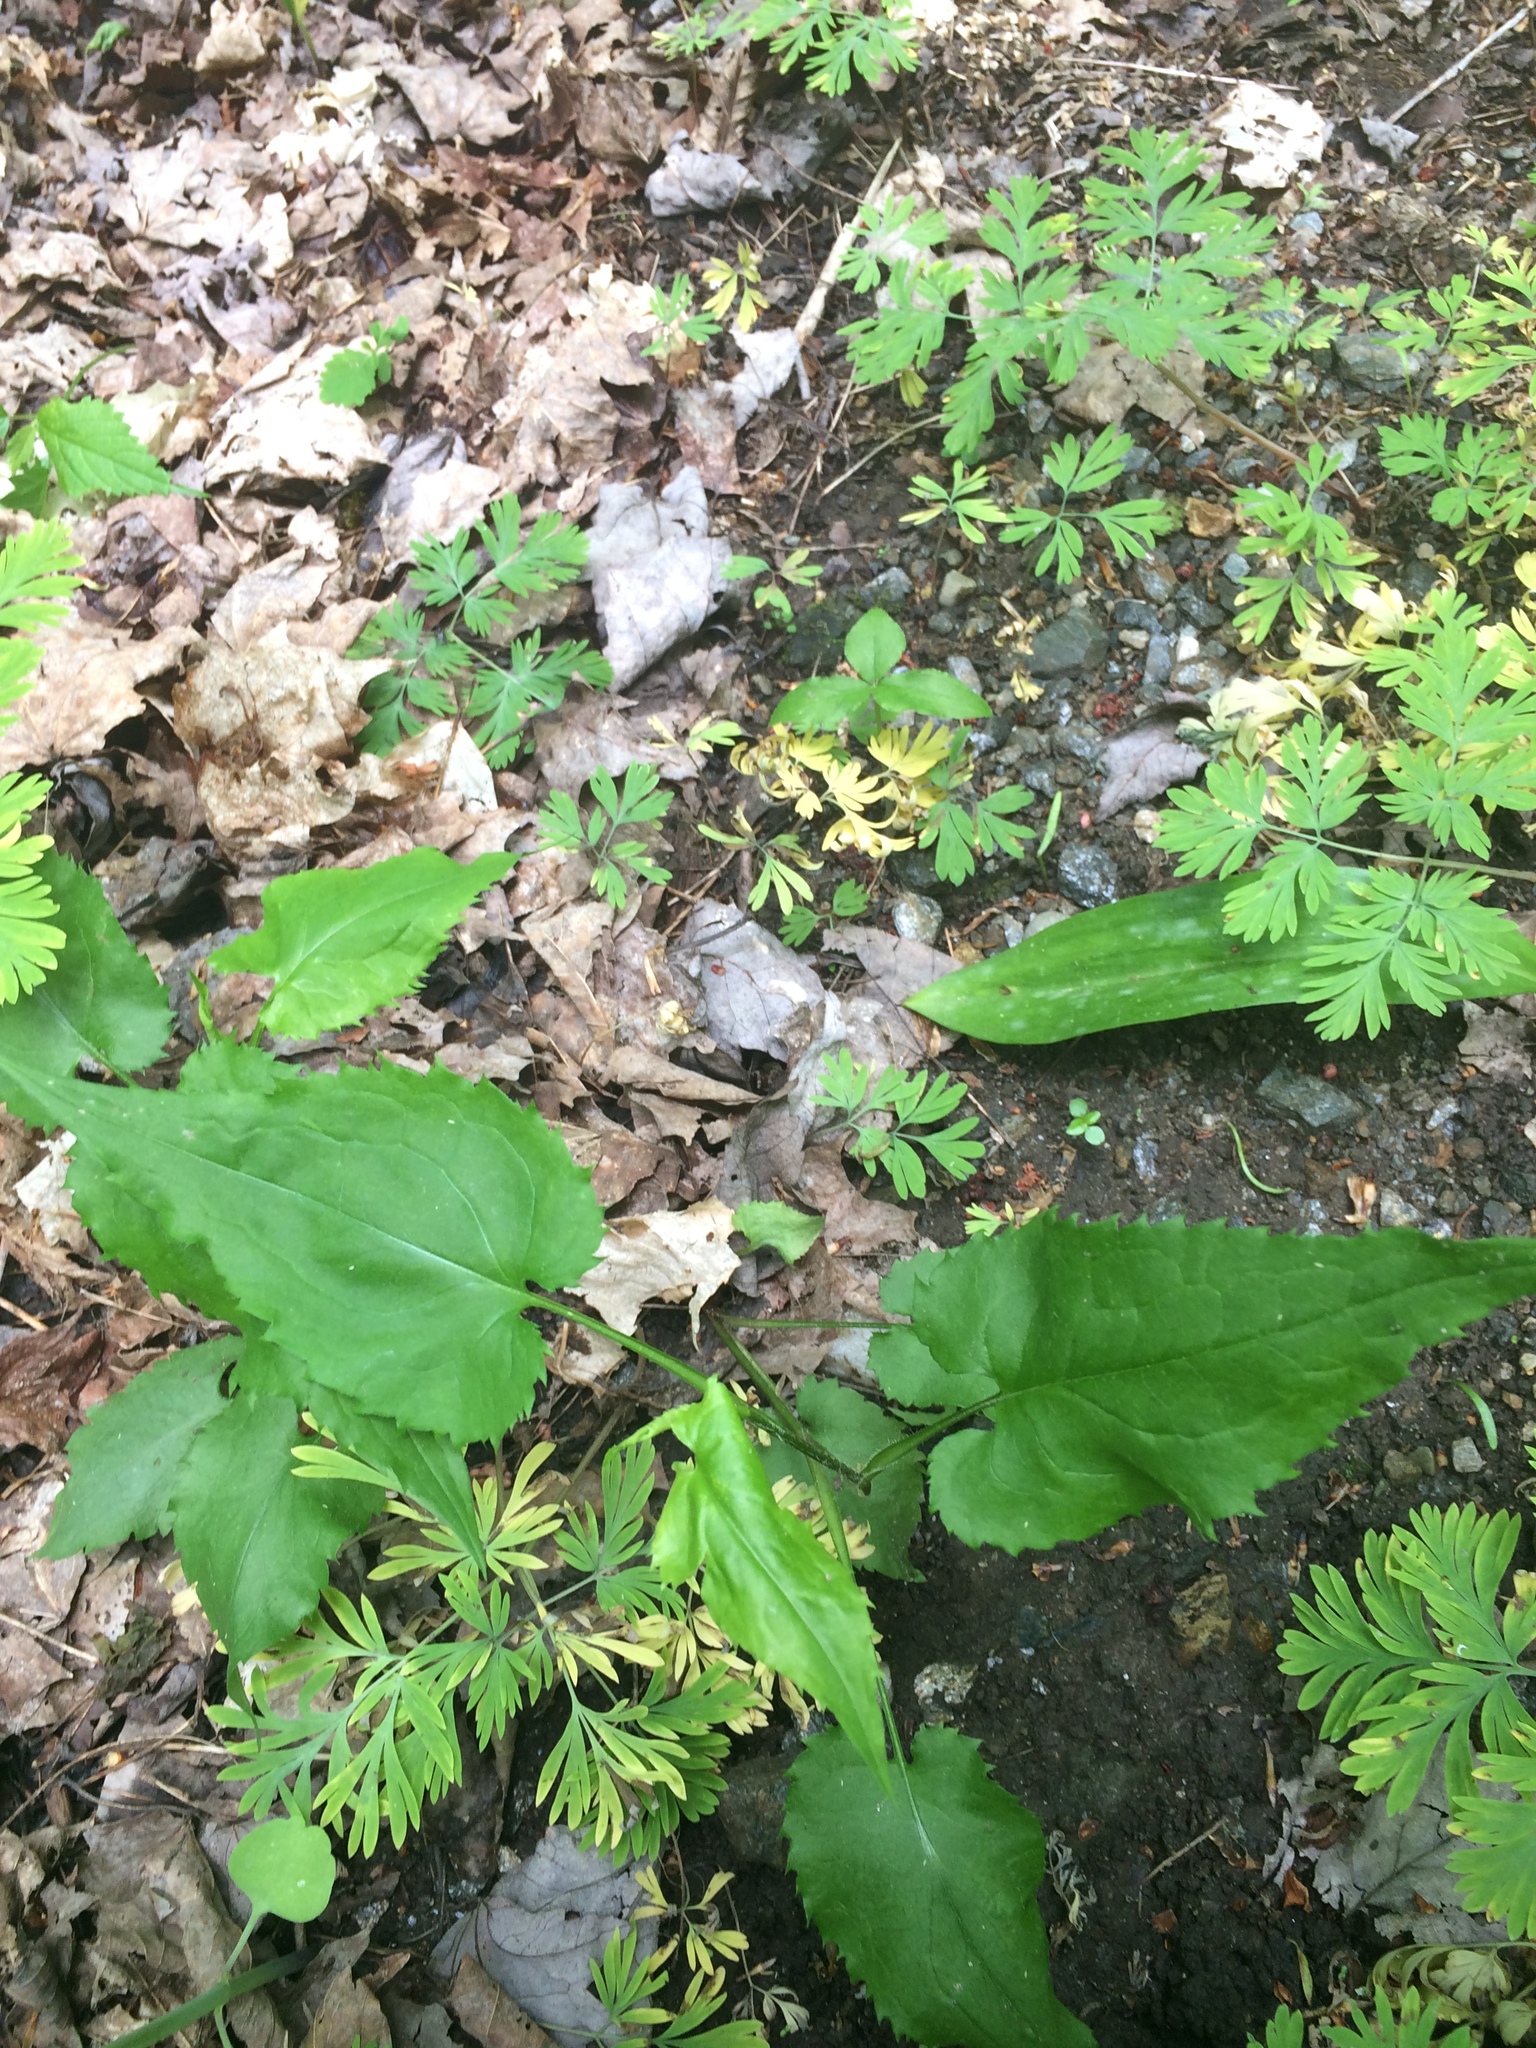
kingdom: Plantae
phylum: Tracheophyta
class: Magnoliopsida
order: Ranunculales
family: Papaveraceae
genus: Dicentra
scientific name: Dicentra cucullaria
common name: Dutchman's breeches
